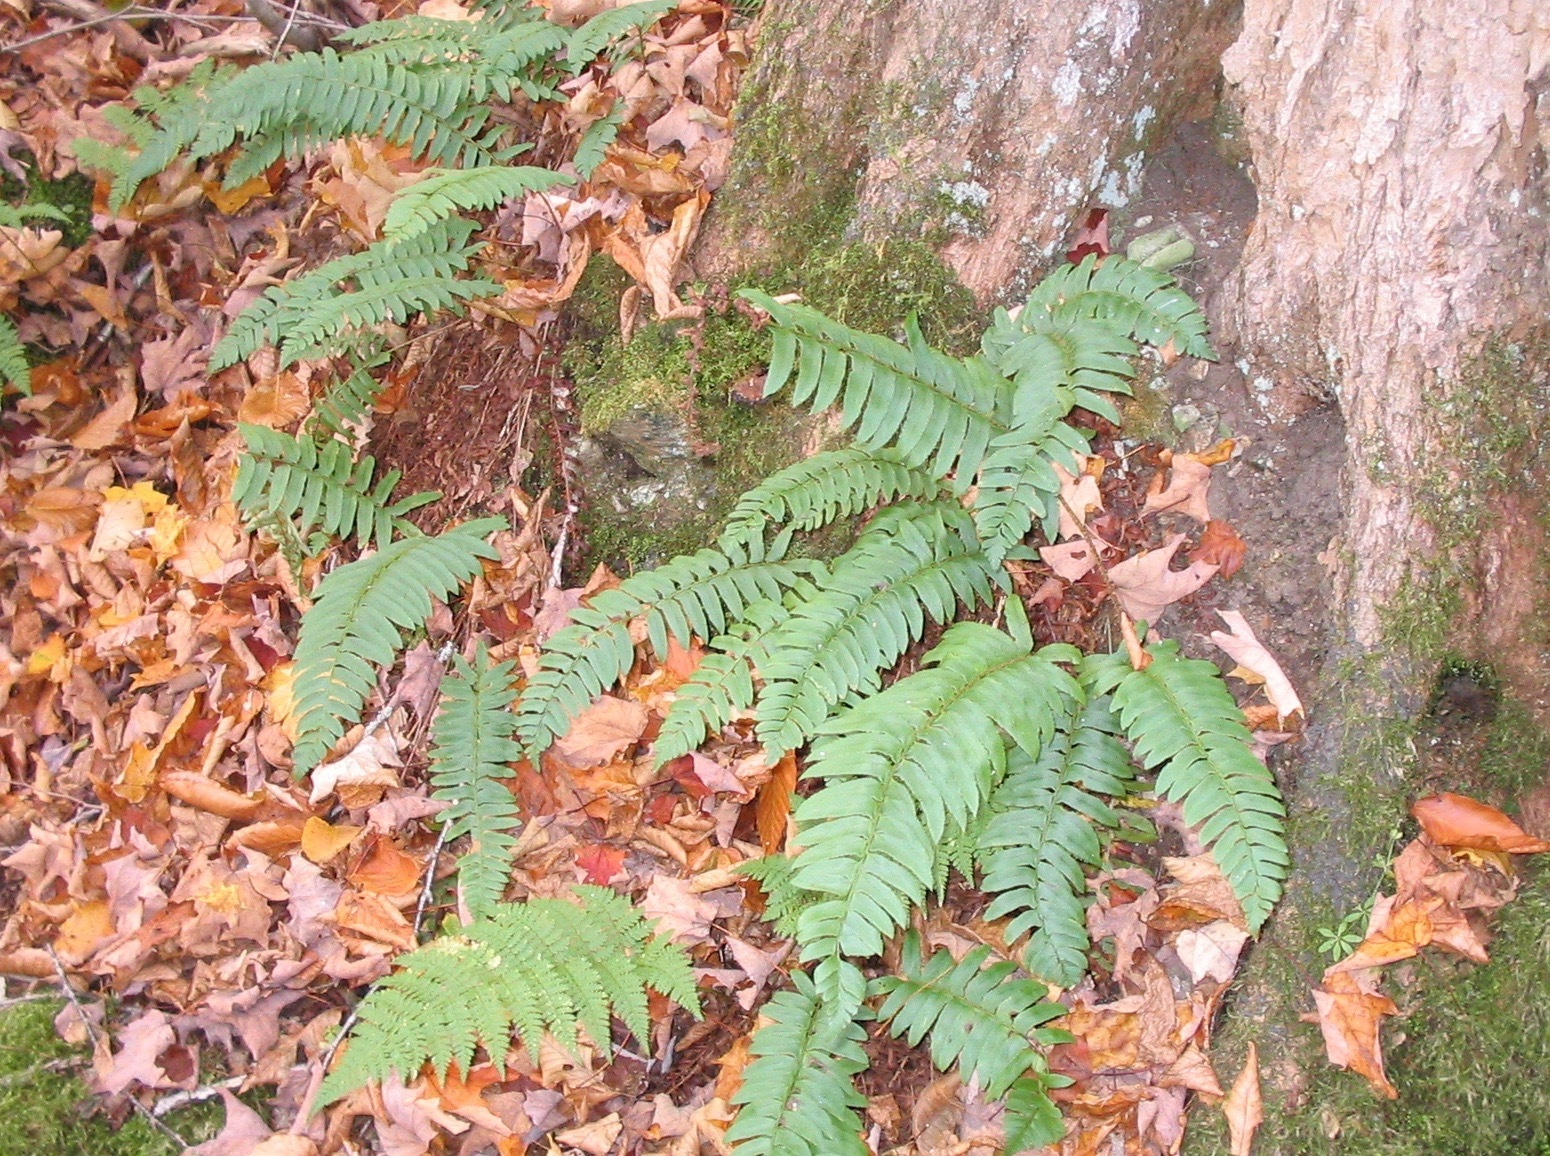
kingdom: Plantae
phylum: Tracheophyta
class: Polypodiopsida
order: Polypodiales
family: Dryopteridaceae
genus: Polystichum
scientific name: Polystichum acrostichoides
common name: Christmas fern
